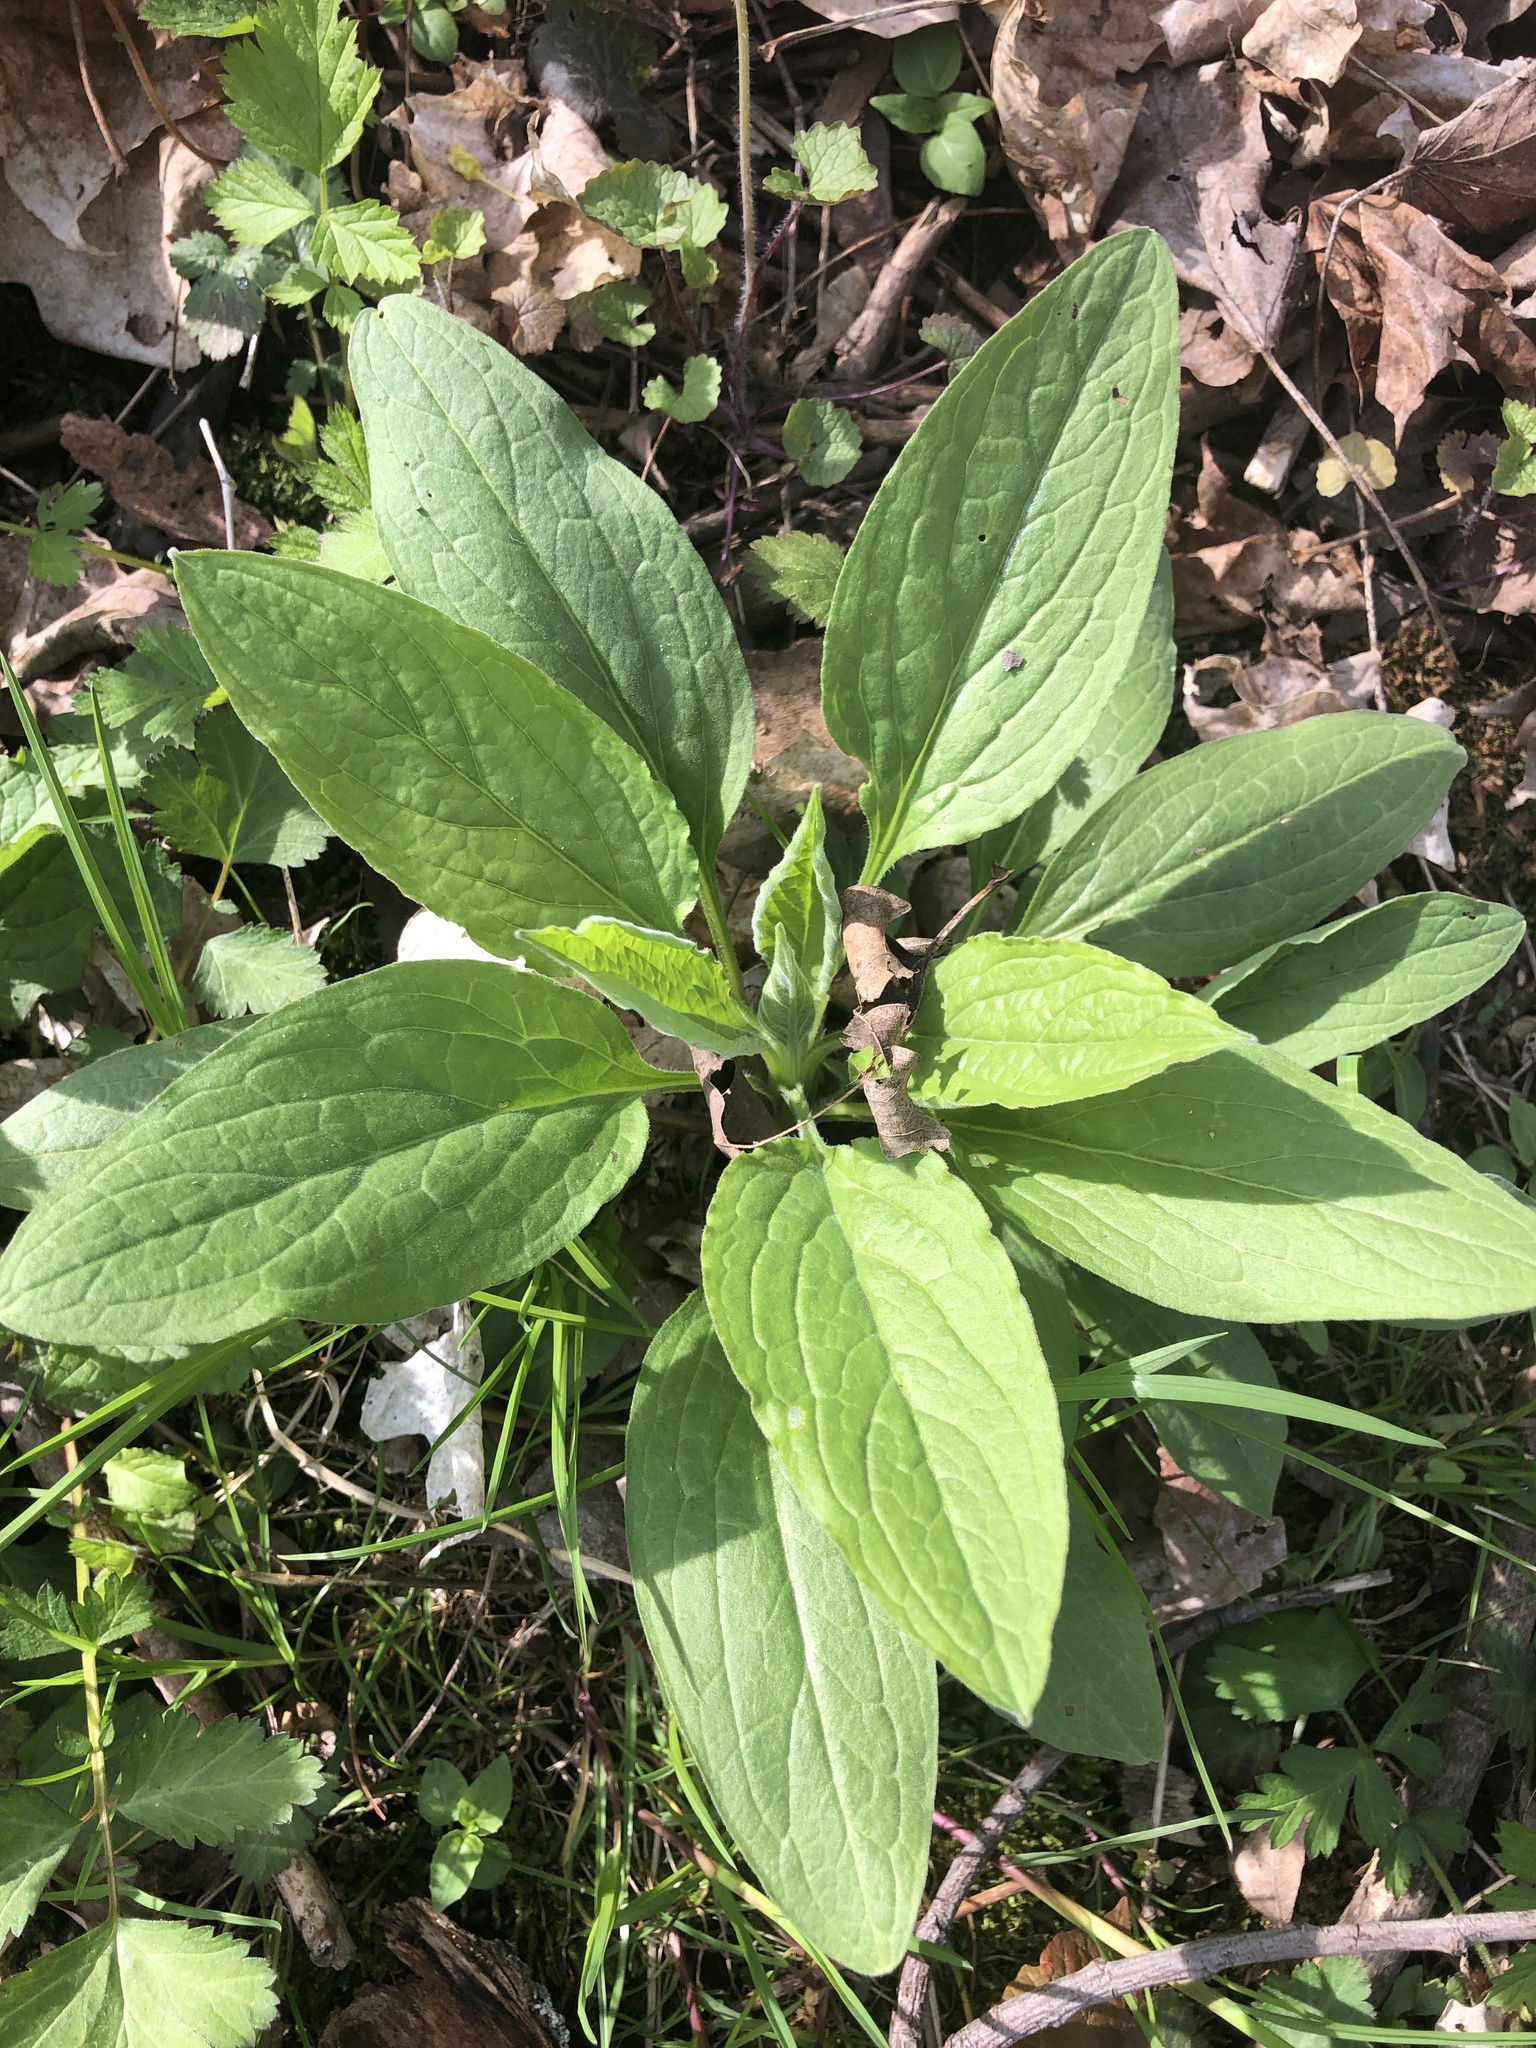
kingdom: Plantae
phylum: Tracheophyta
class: Magnoliopsida
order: Boraginales
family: Boraginaceae
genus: Hackelia
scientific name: Hackelia virginiana
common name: Beggar's-lice
